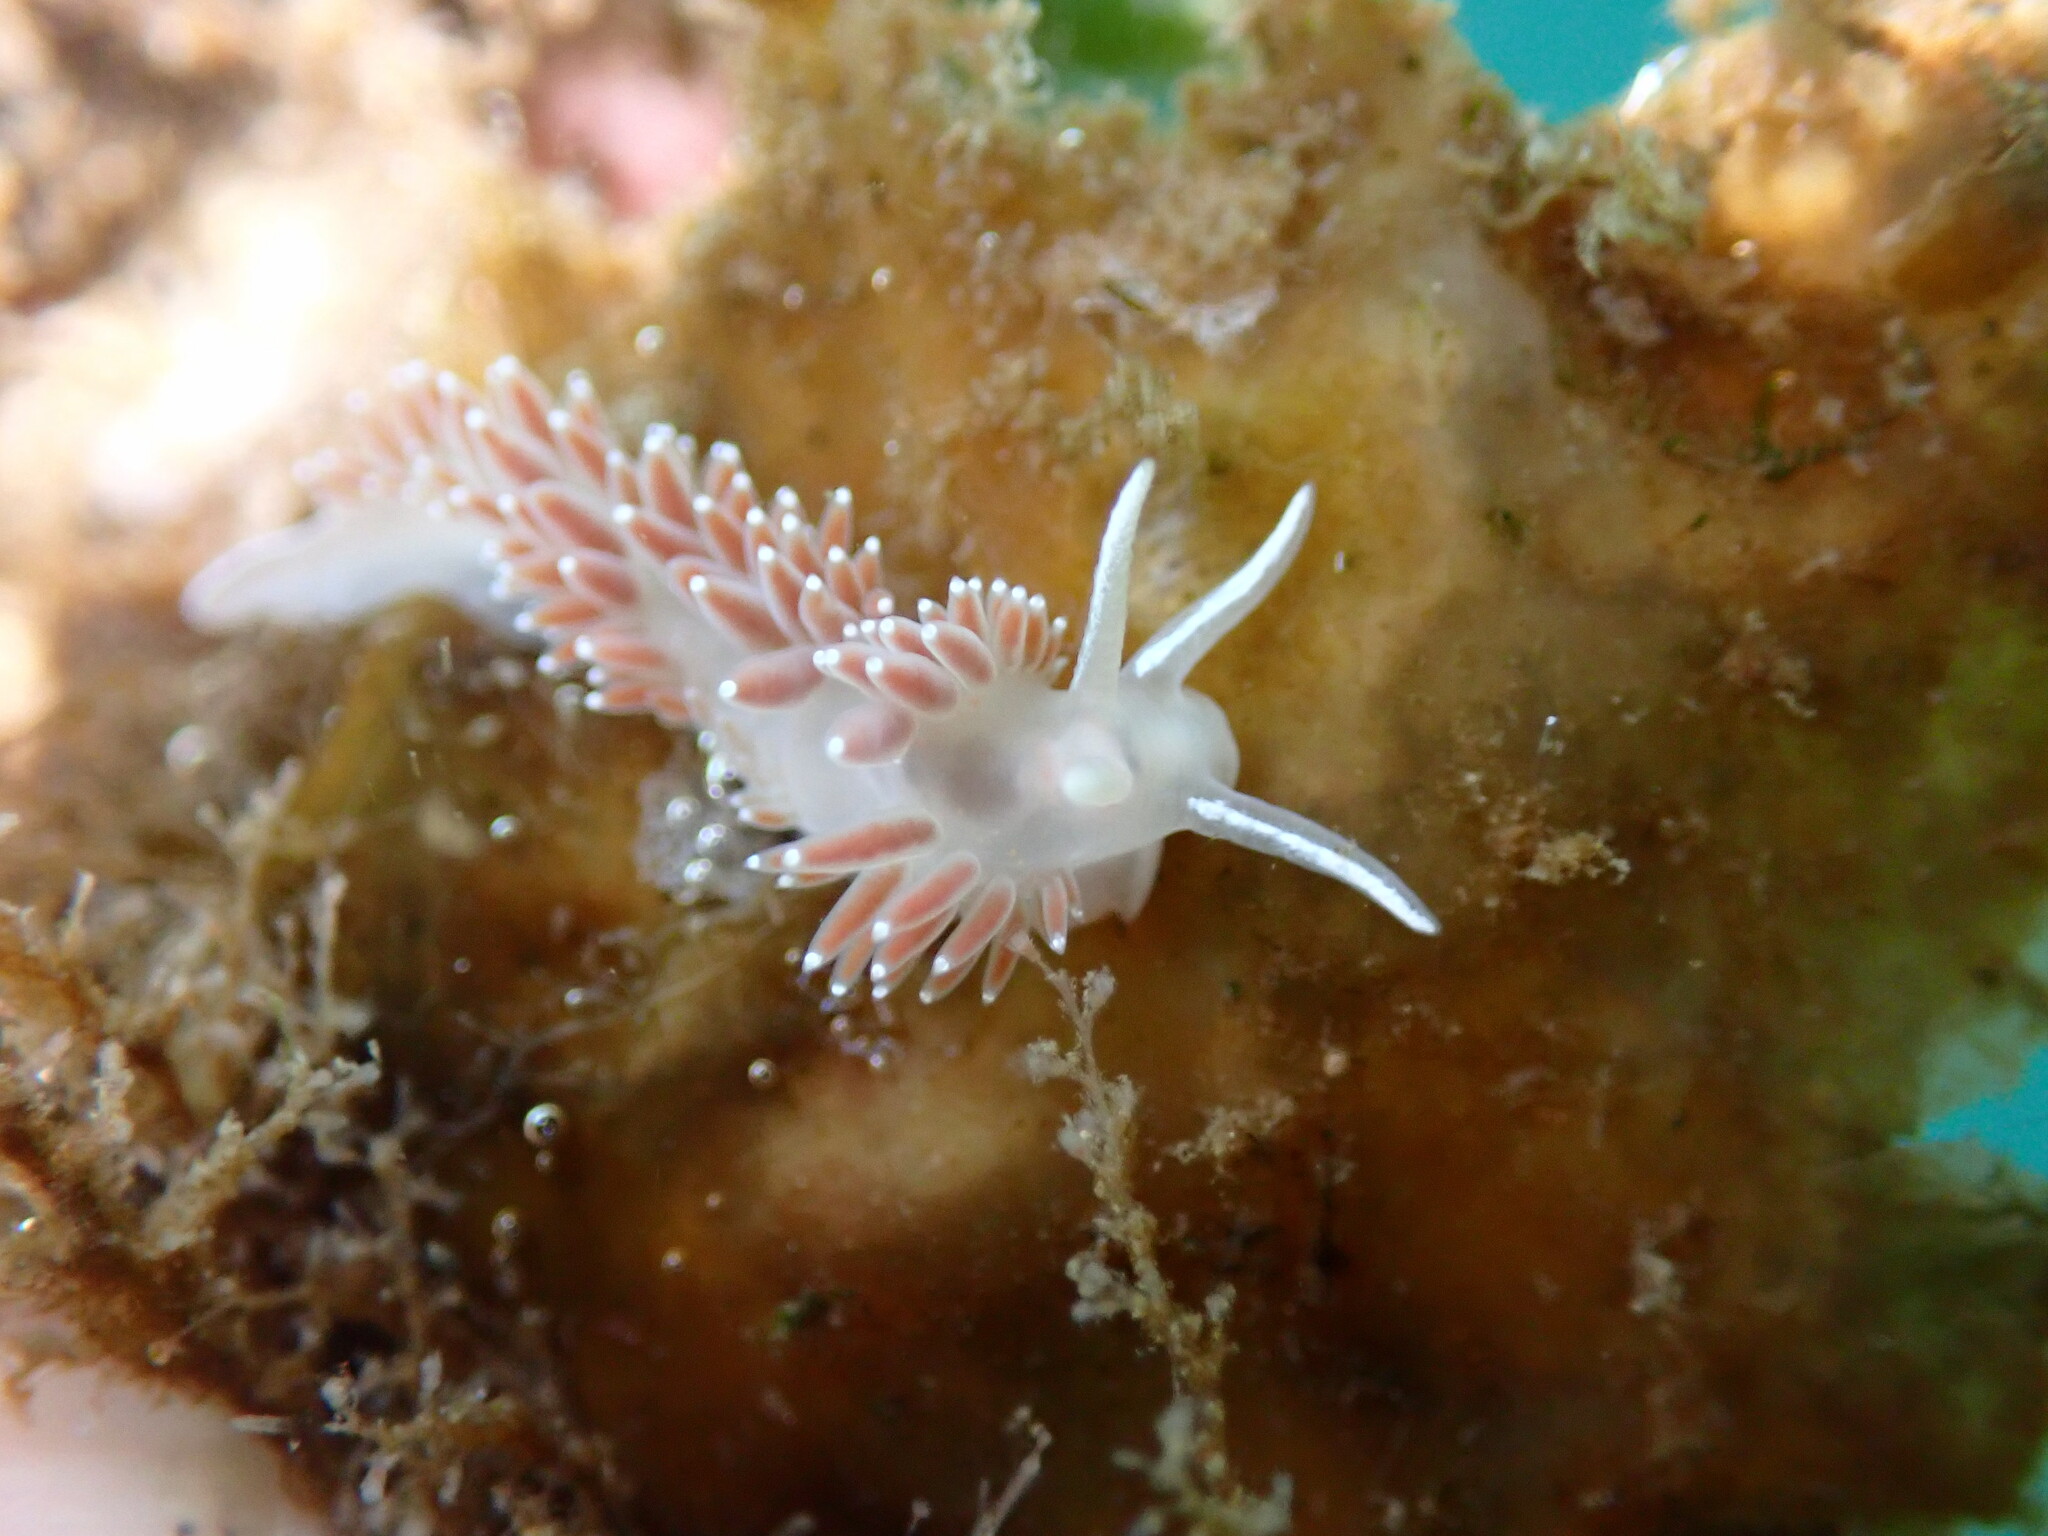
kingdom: Animalia
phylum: Mollusca
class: Gastropoda
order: Nudibranchia
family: Coryphellidae
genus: Coryphella
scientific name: Coryphella verrucosa
